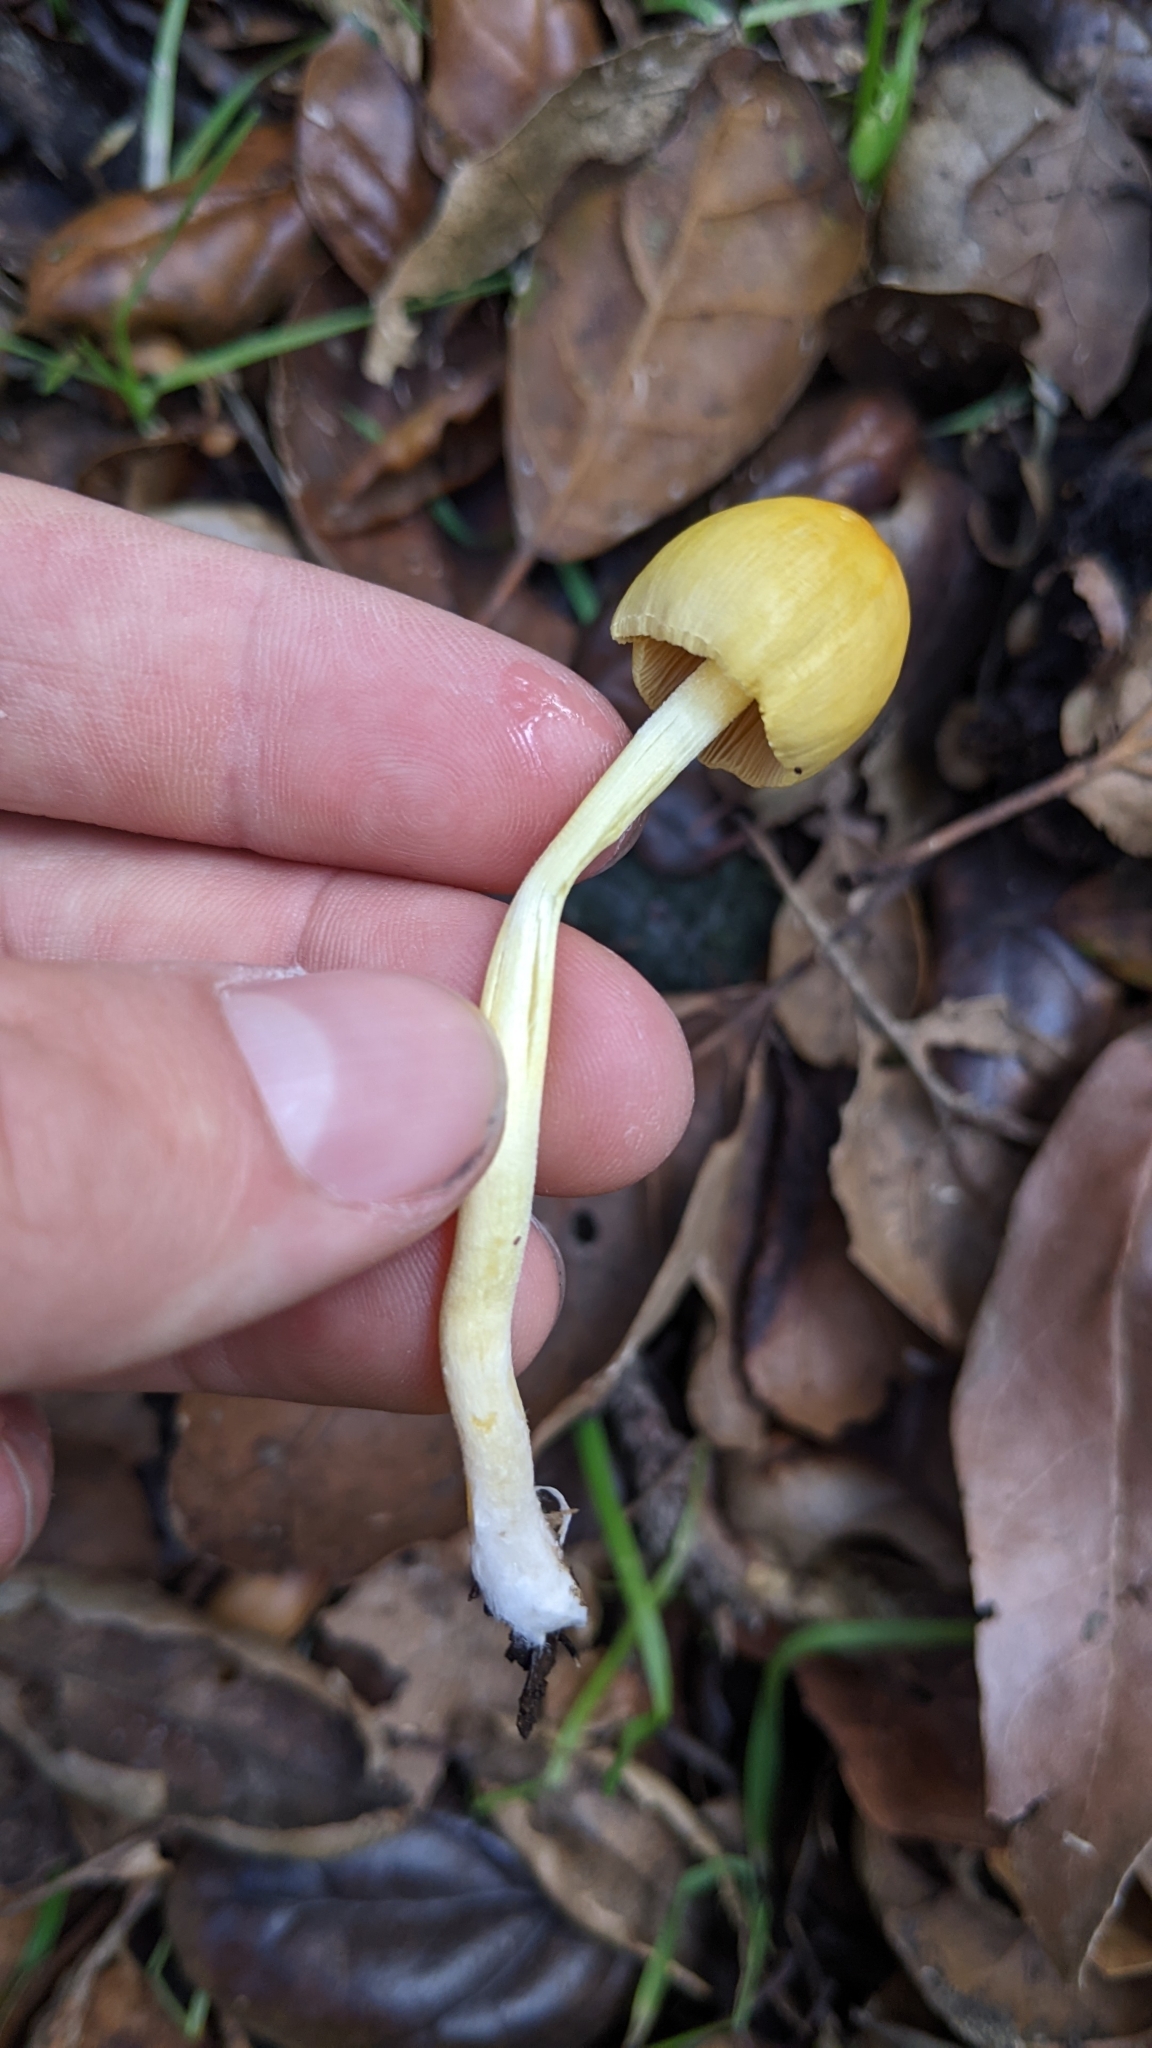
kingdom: Fungi
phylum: Basidiomycota
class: Agaricomycetes
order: Agaricales
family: Bolbitiaceae
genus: Bolbitius
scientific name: Bolbitius titubans
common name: Yellow fieldcap
